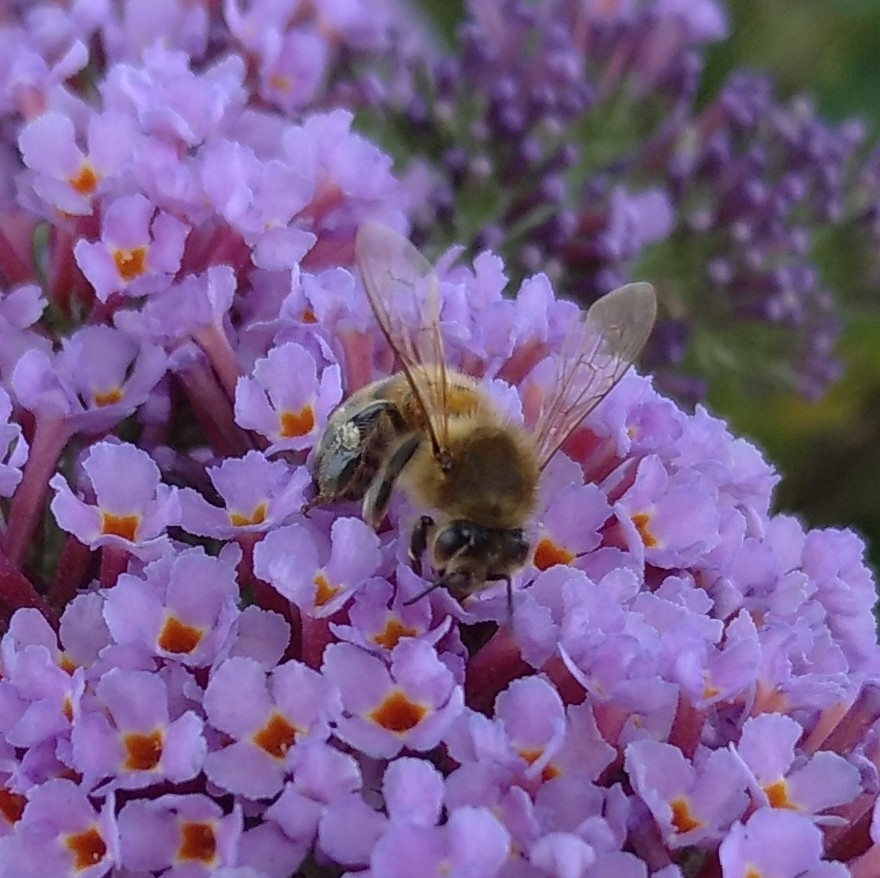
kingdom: Animalia
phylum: Arthropoda
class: Insecta
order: Hymenoptera
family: Apidae
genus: Apis
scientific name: Apis mellifera
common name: Honey bee
